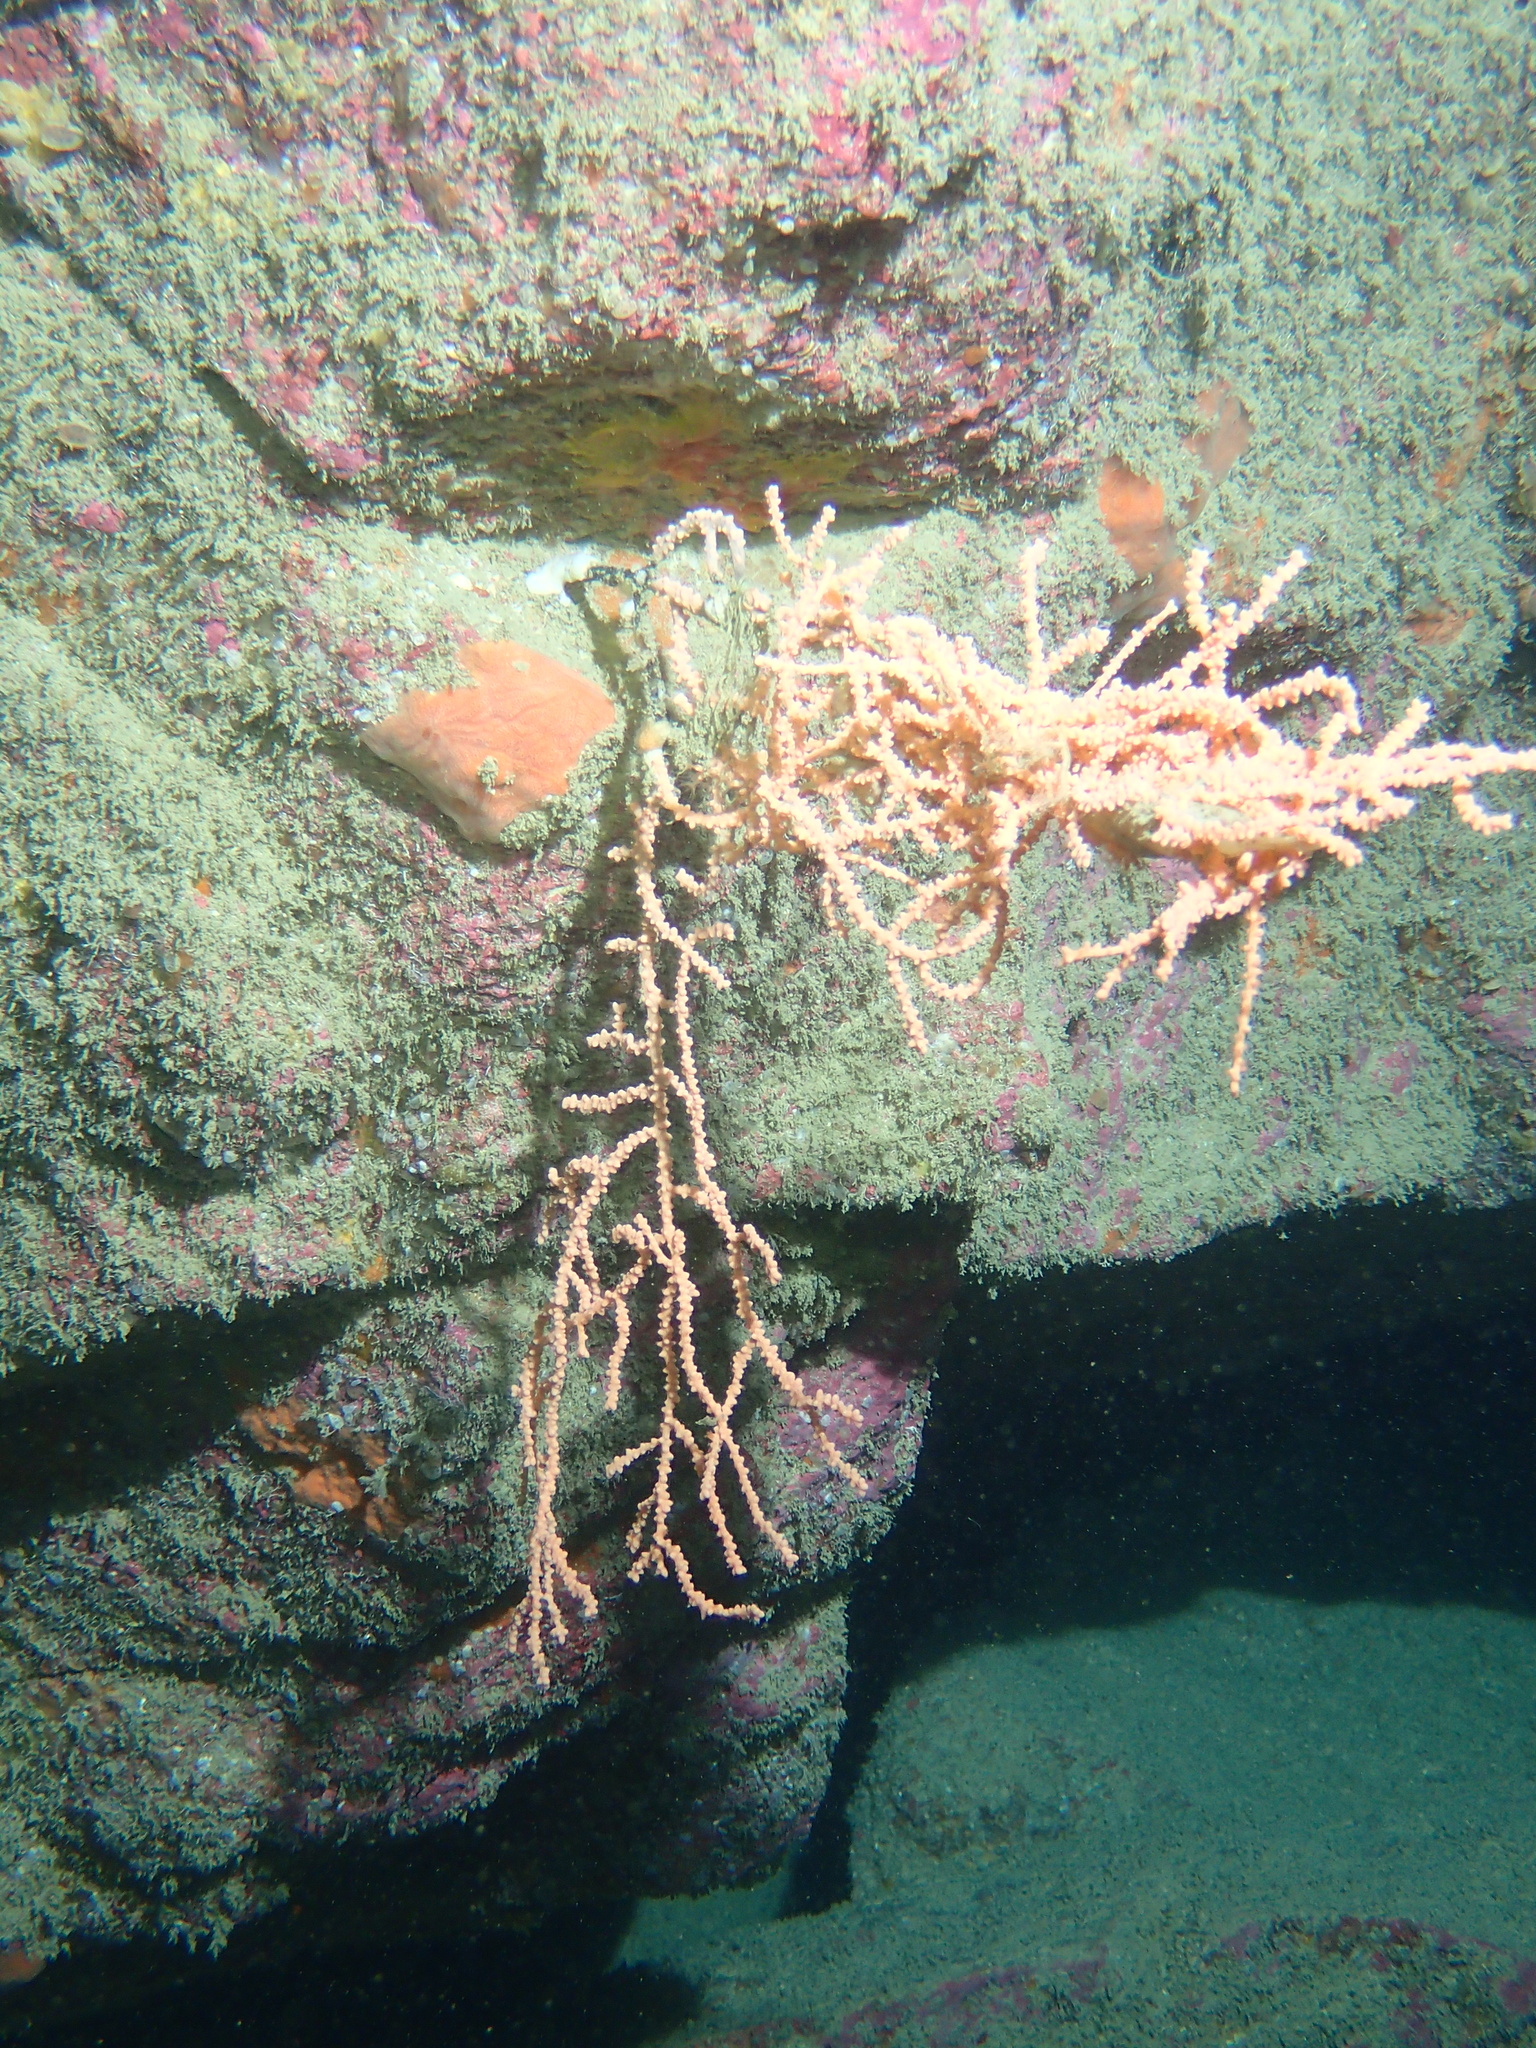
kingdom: Animalia
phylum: Cnidaria
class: Anthozoa
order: Malacalcyonacea
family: Eunicellidae
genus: Eunicella
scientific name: Eunicella verrucosa
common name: Pink sea-fan
